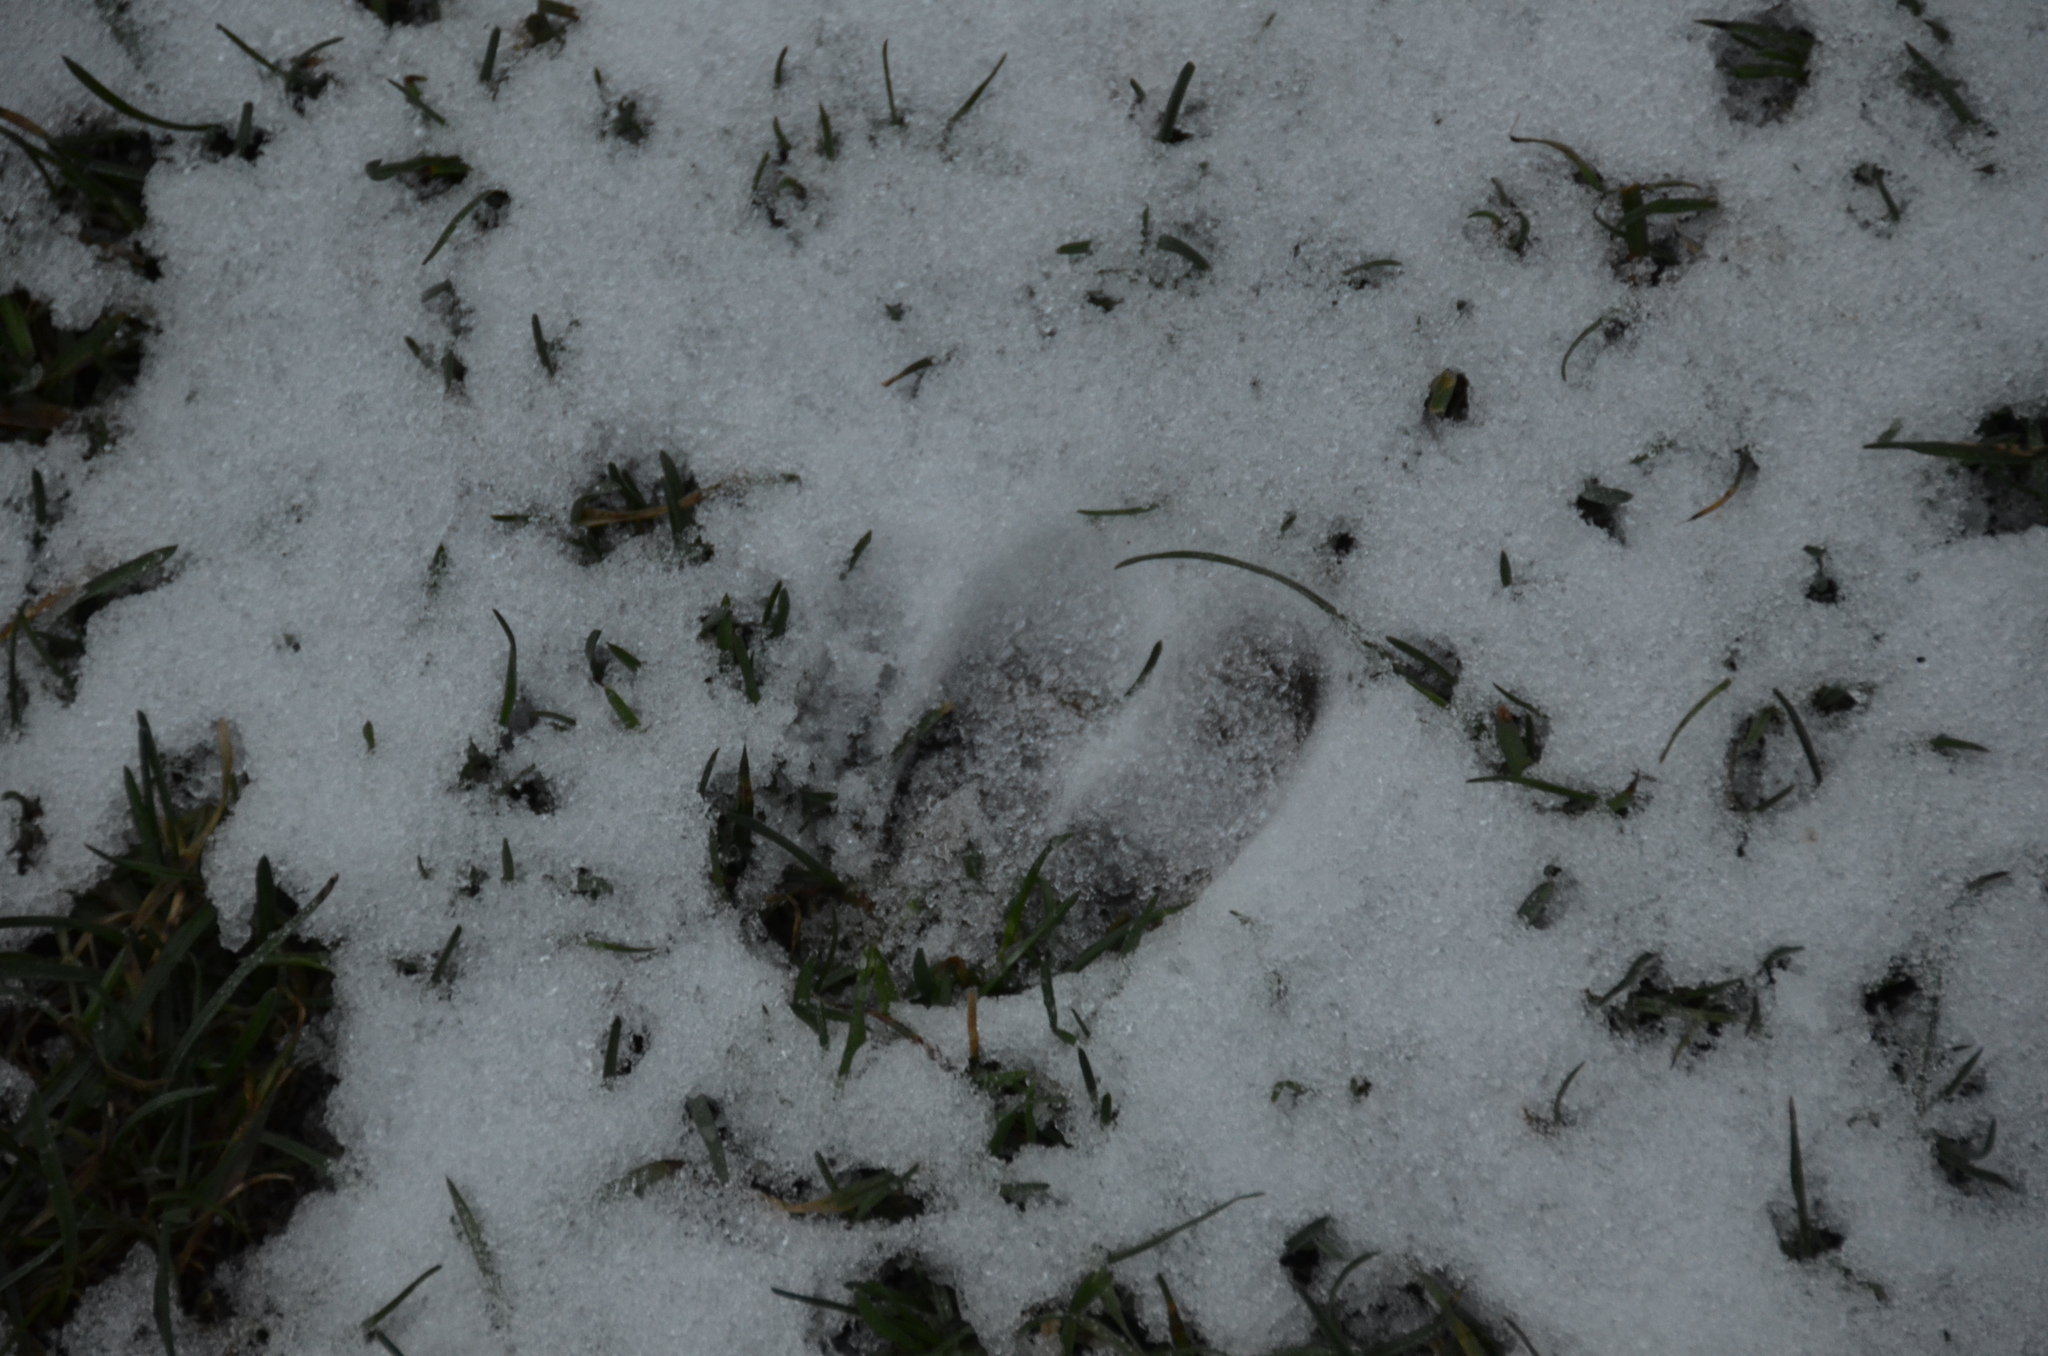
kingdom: Animalia
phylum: Chordata
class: Mammalia
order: Artiodactyla
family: Cervidae
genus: Odocoileus
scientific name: Odocoileus hemionus
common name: Mule deer
